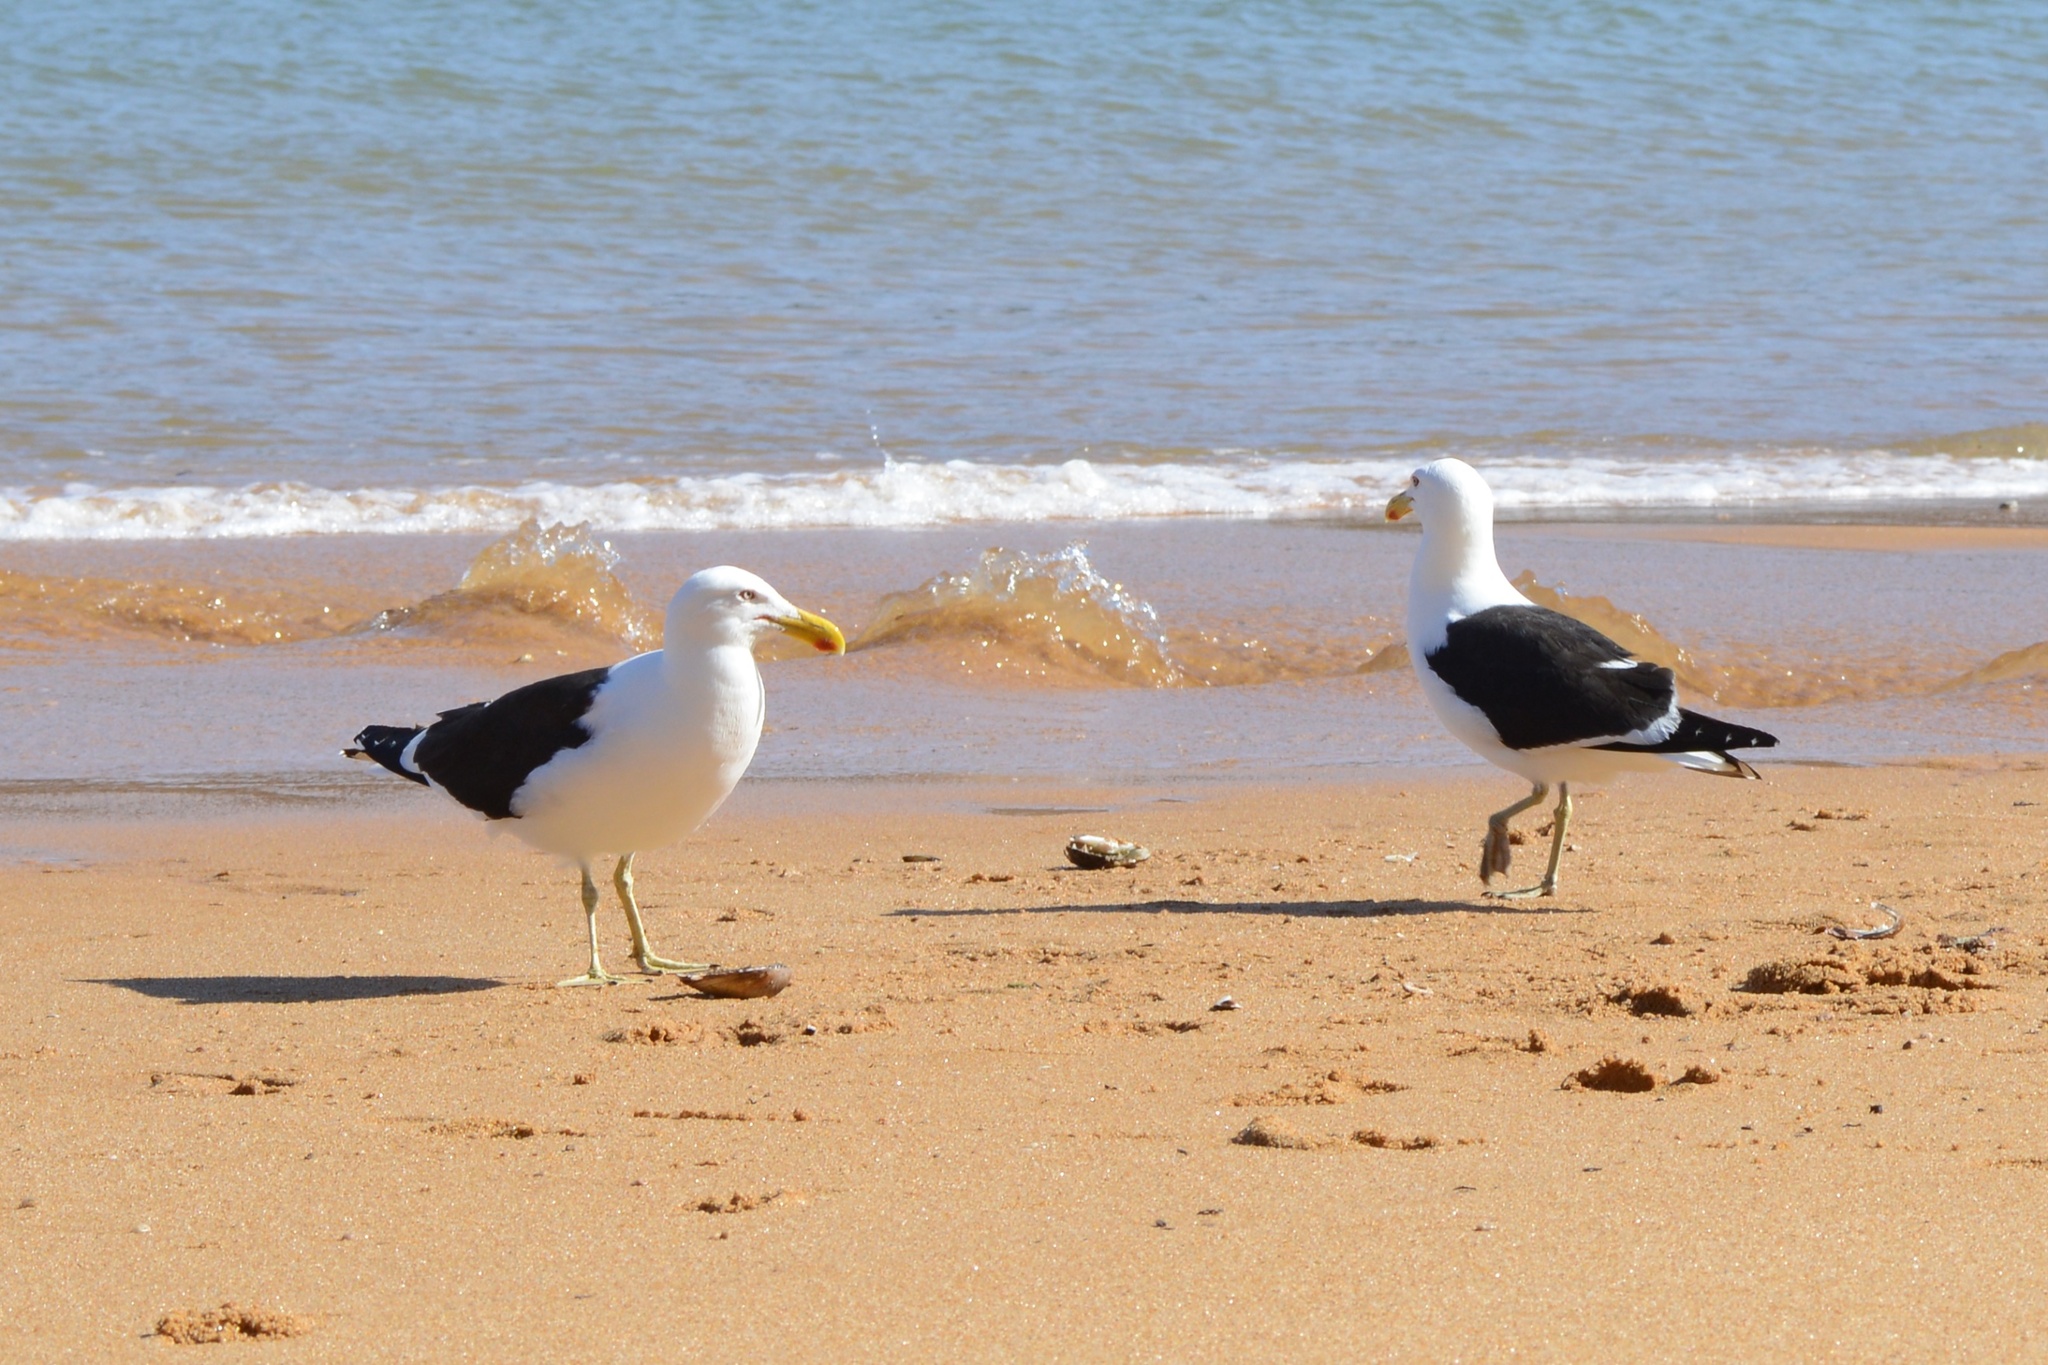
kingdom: Animalia
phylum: Chordata
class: Aves
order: Charadriiformes
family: Laridae
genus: Larus
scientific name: Larus dominicanus
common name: Kelp gull
